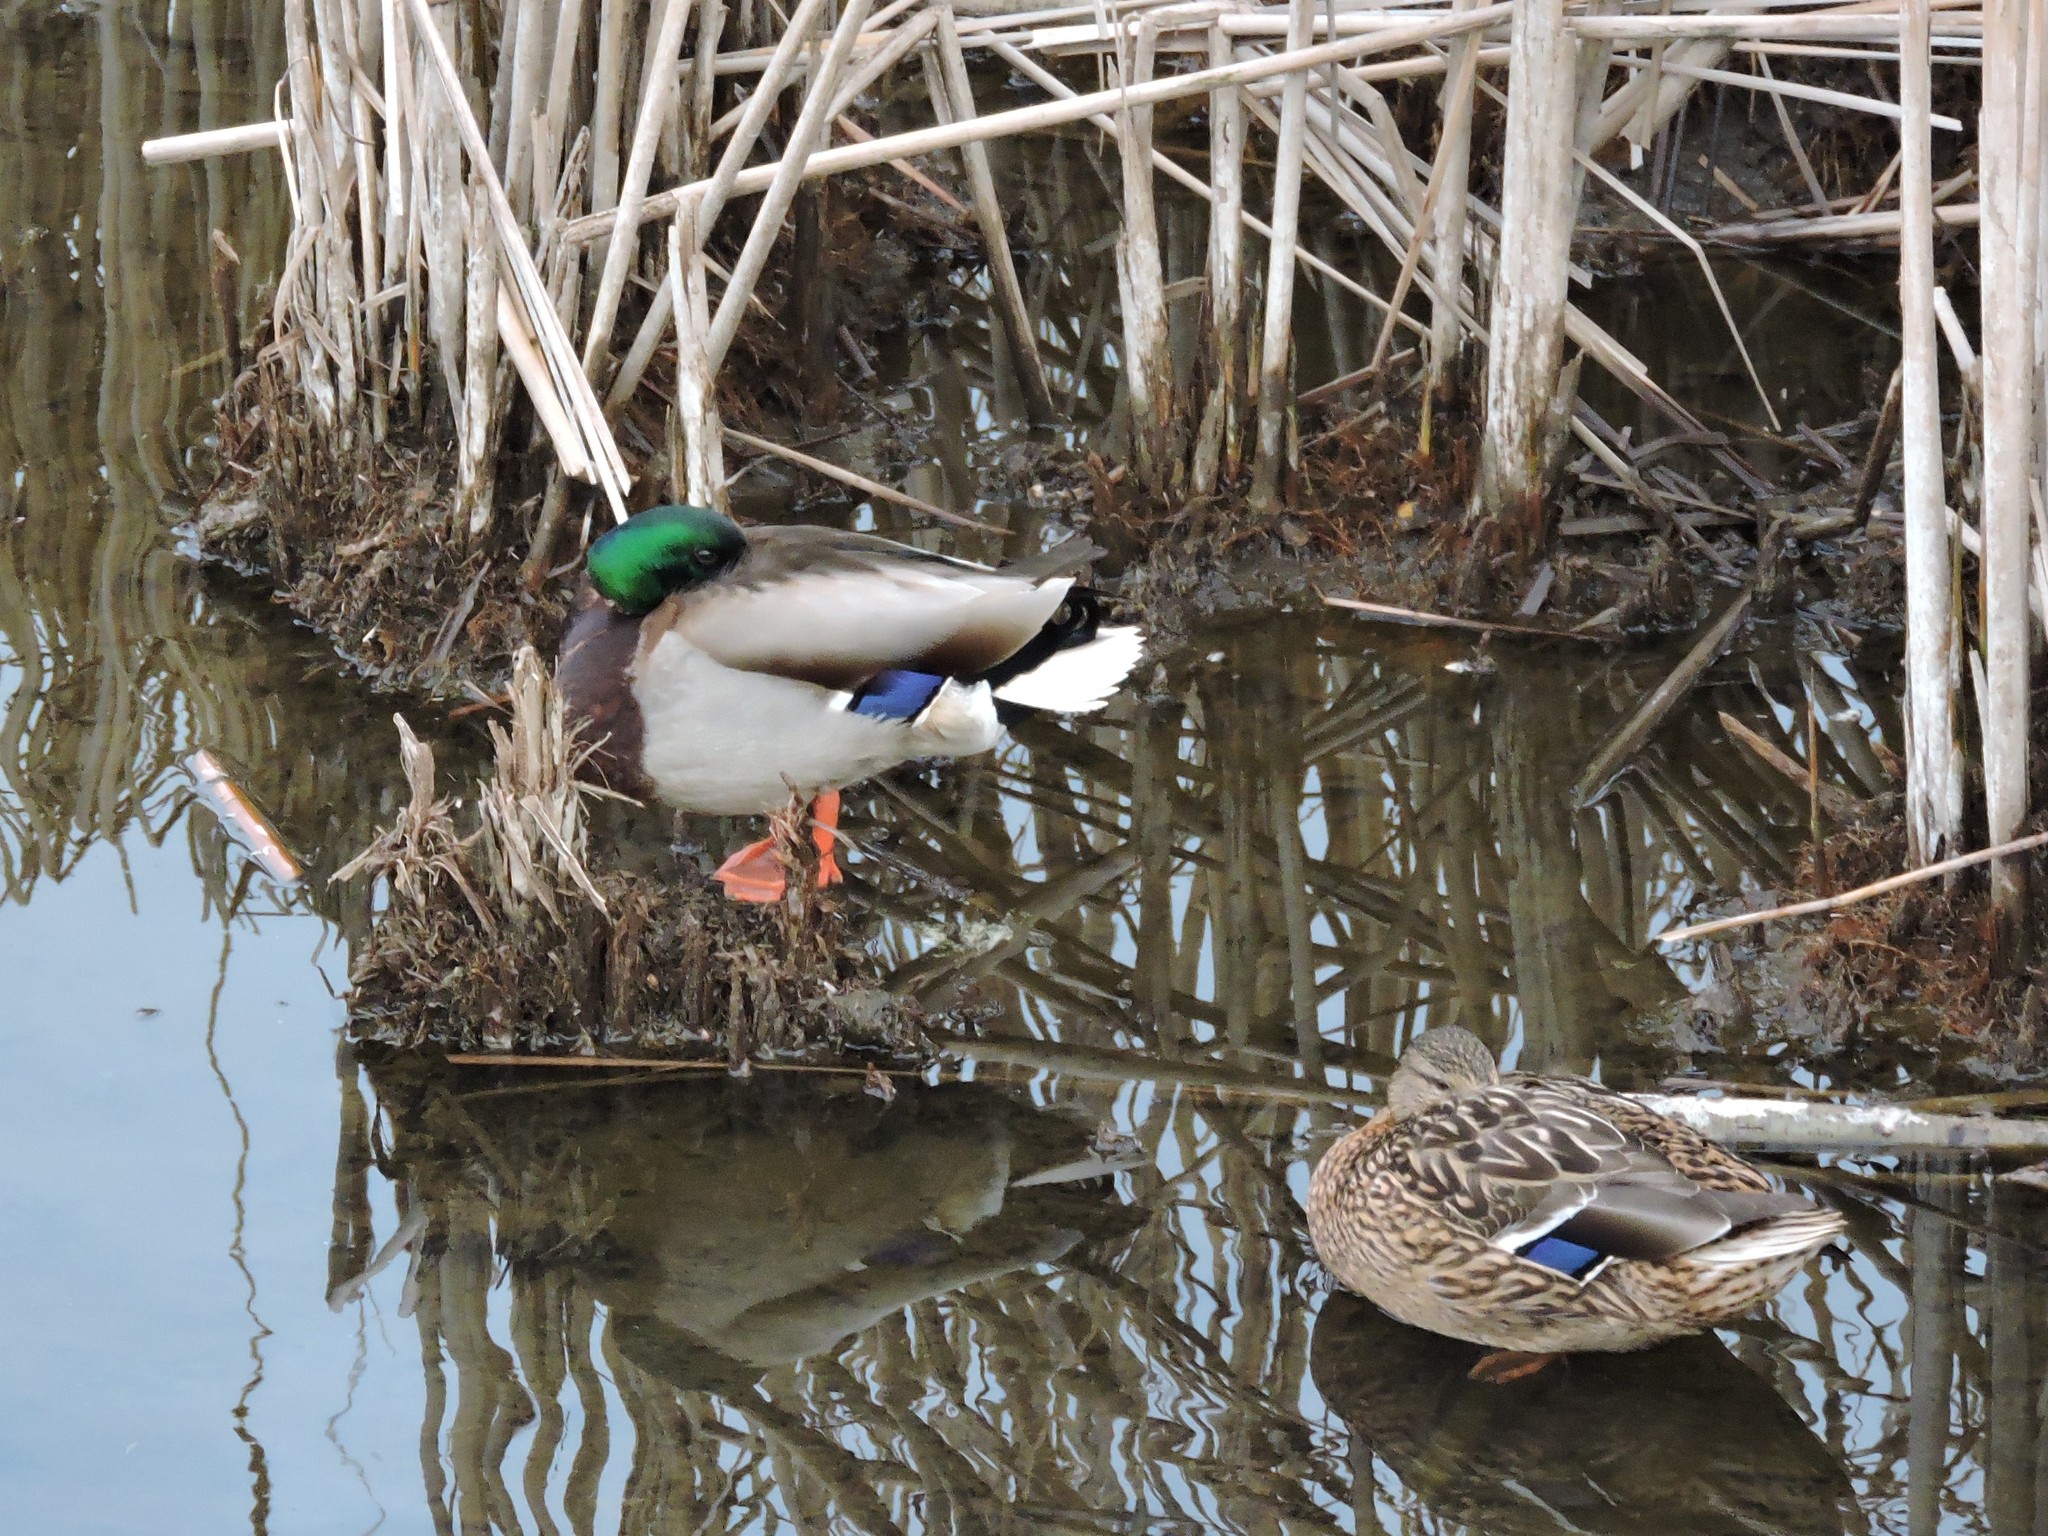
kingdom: Animalia
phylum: Chordata
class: Aves
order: Anseriformes
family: Anatidae
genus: Anas
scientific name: Anas platyrhynchos
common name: Mallard
